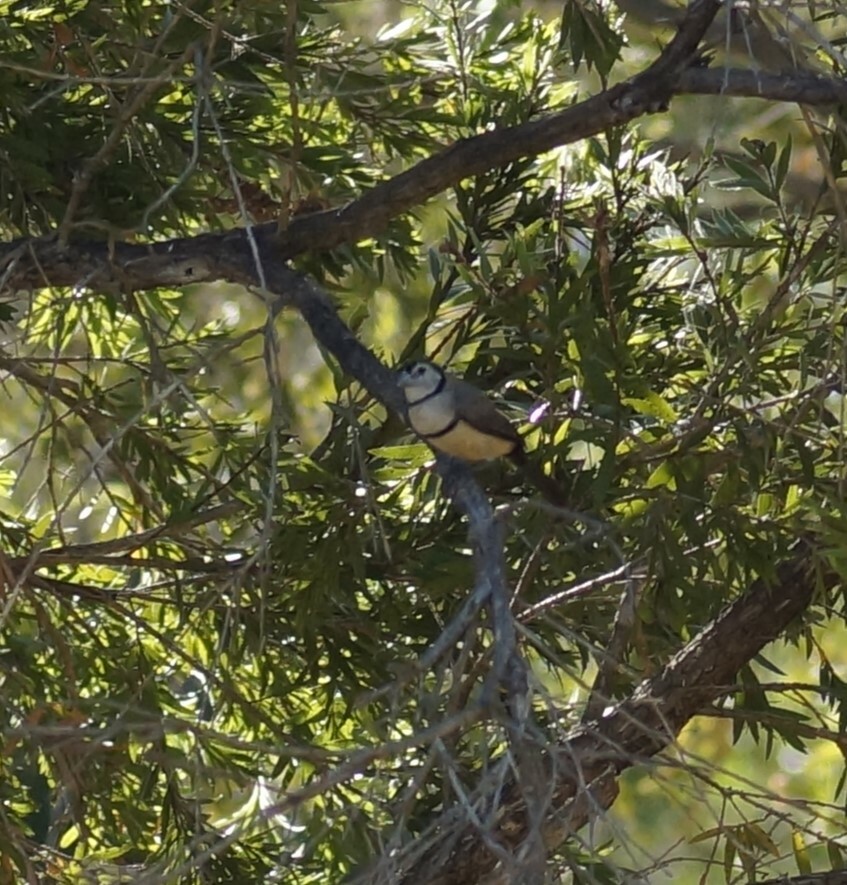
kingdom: Animalia
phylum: Chordata
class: Aves
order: Passeriformes
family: Estrildidae
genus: Taeniopygia
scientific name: Taeniopygia bichenovii
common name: Double-barred finch
